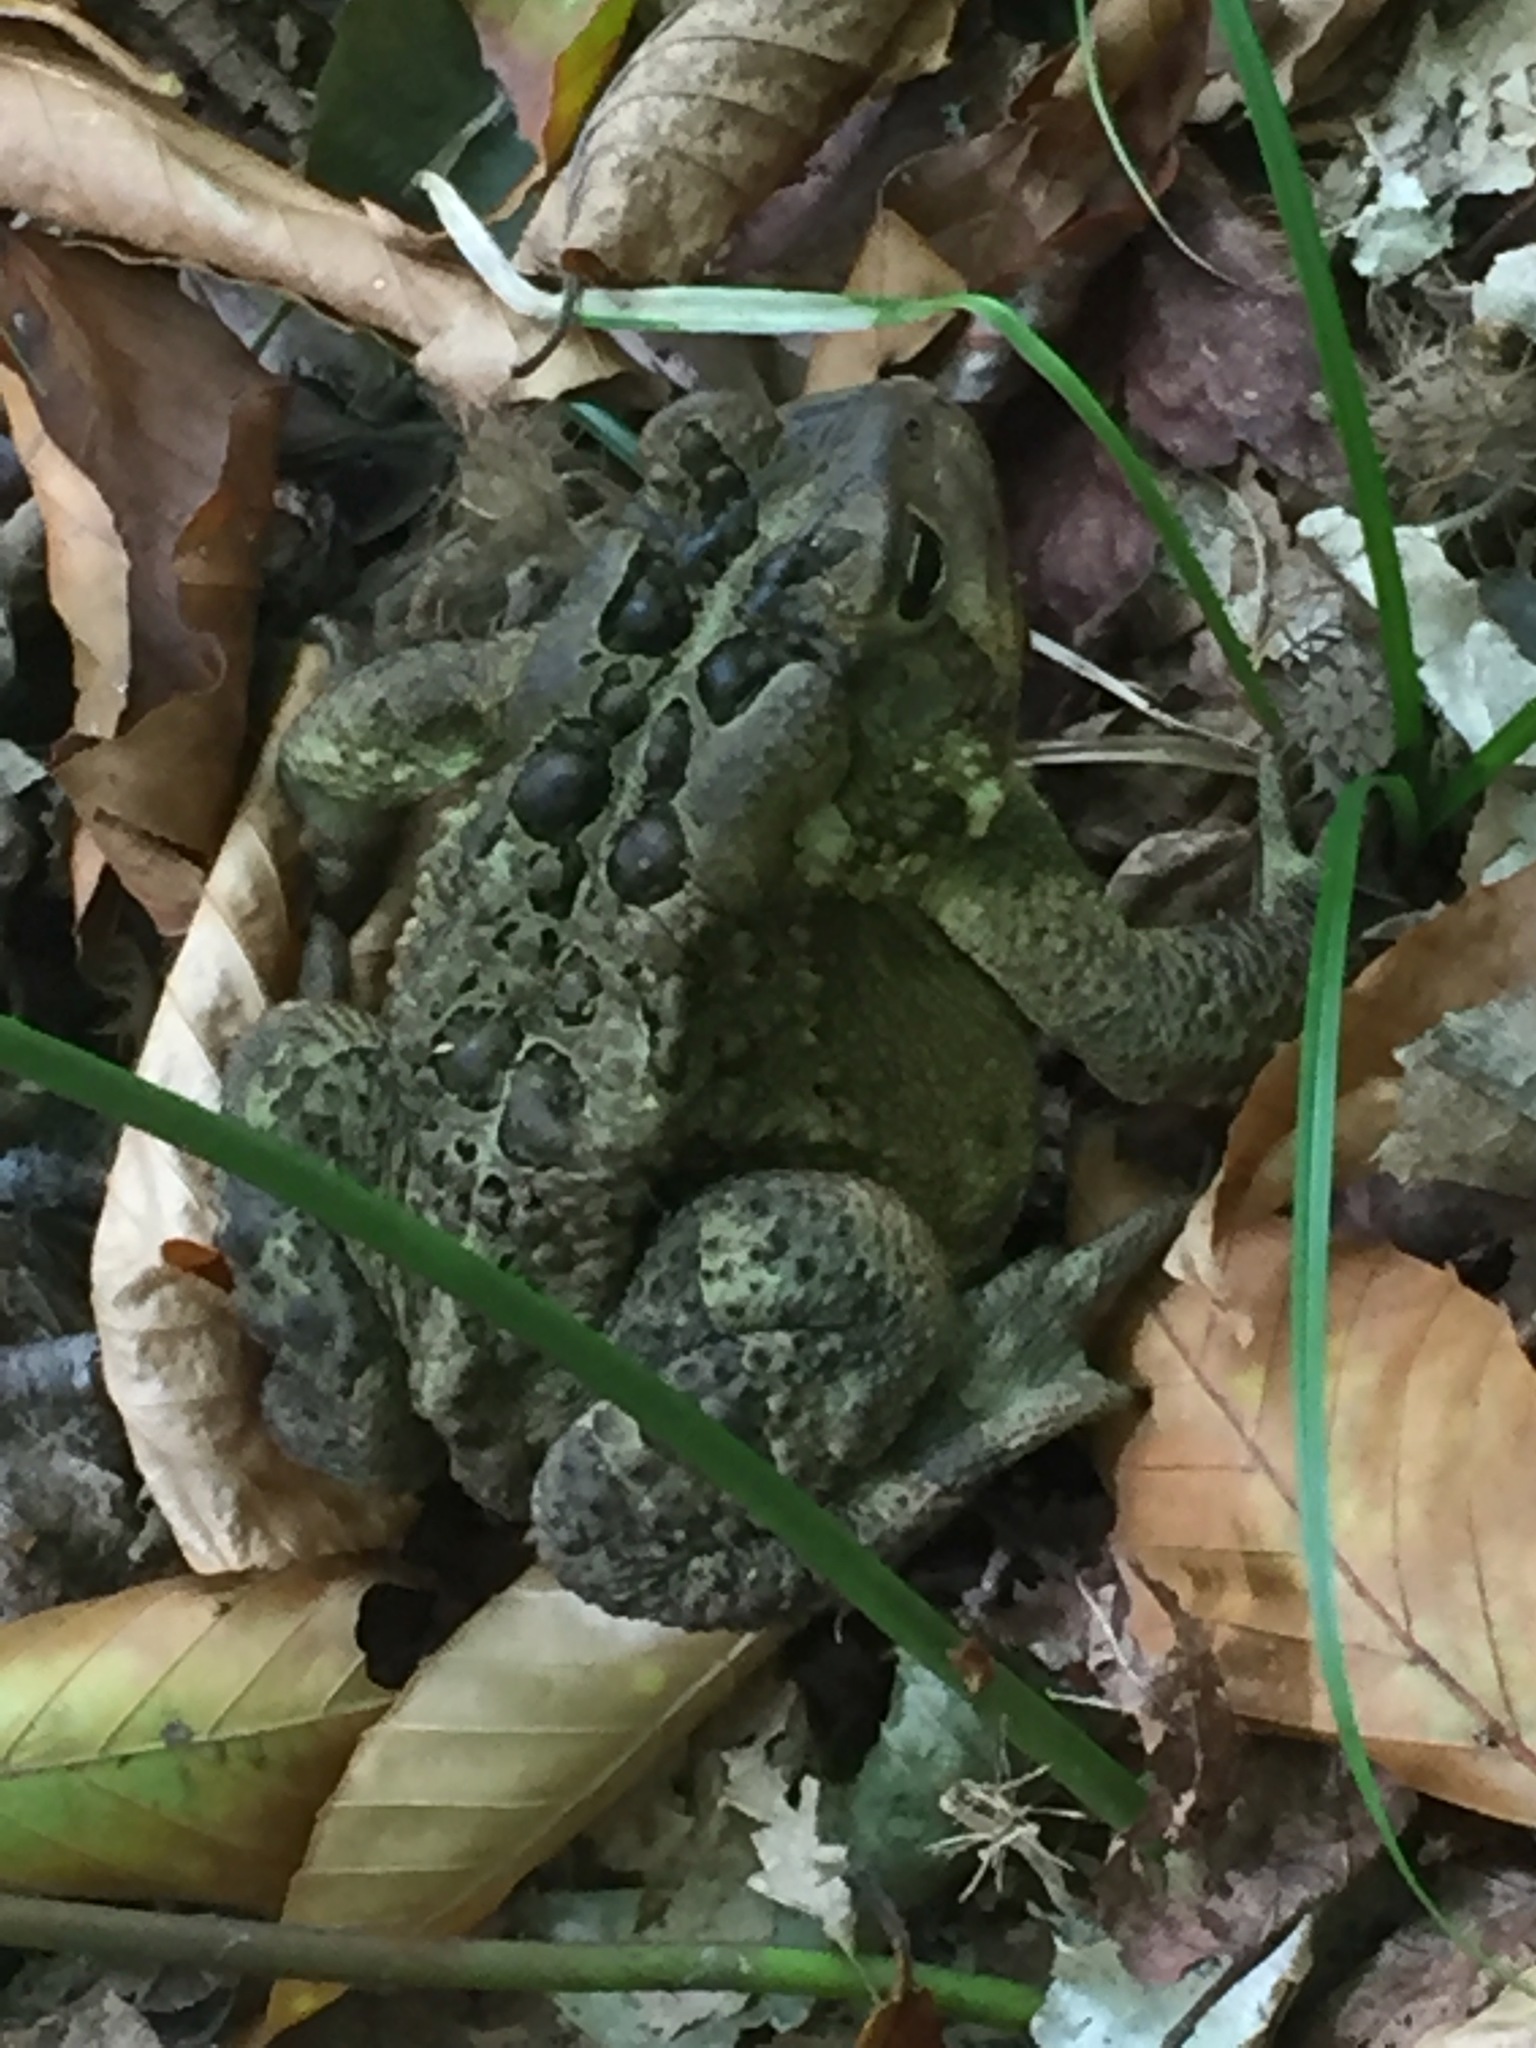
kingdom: Animalia
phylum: Chordata
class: Amphibia
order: Anura
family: Bufonidae
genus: Anaxyrus
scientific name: Anaxyrus americanus
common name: American toad
